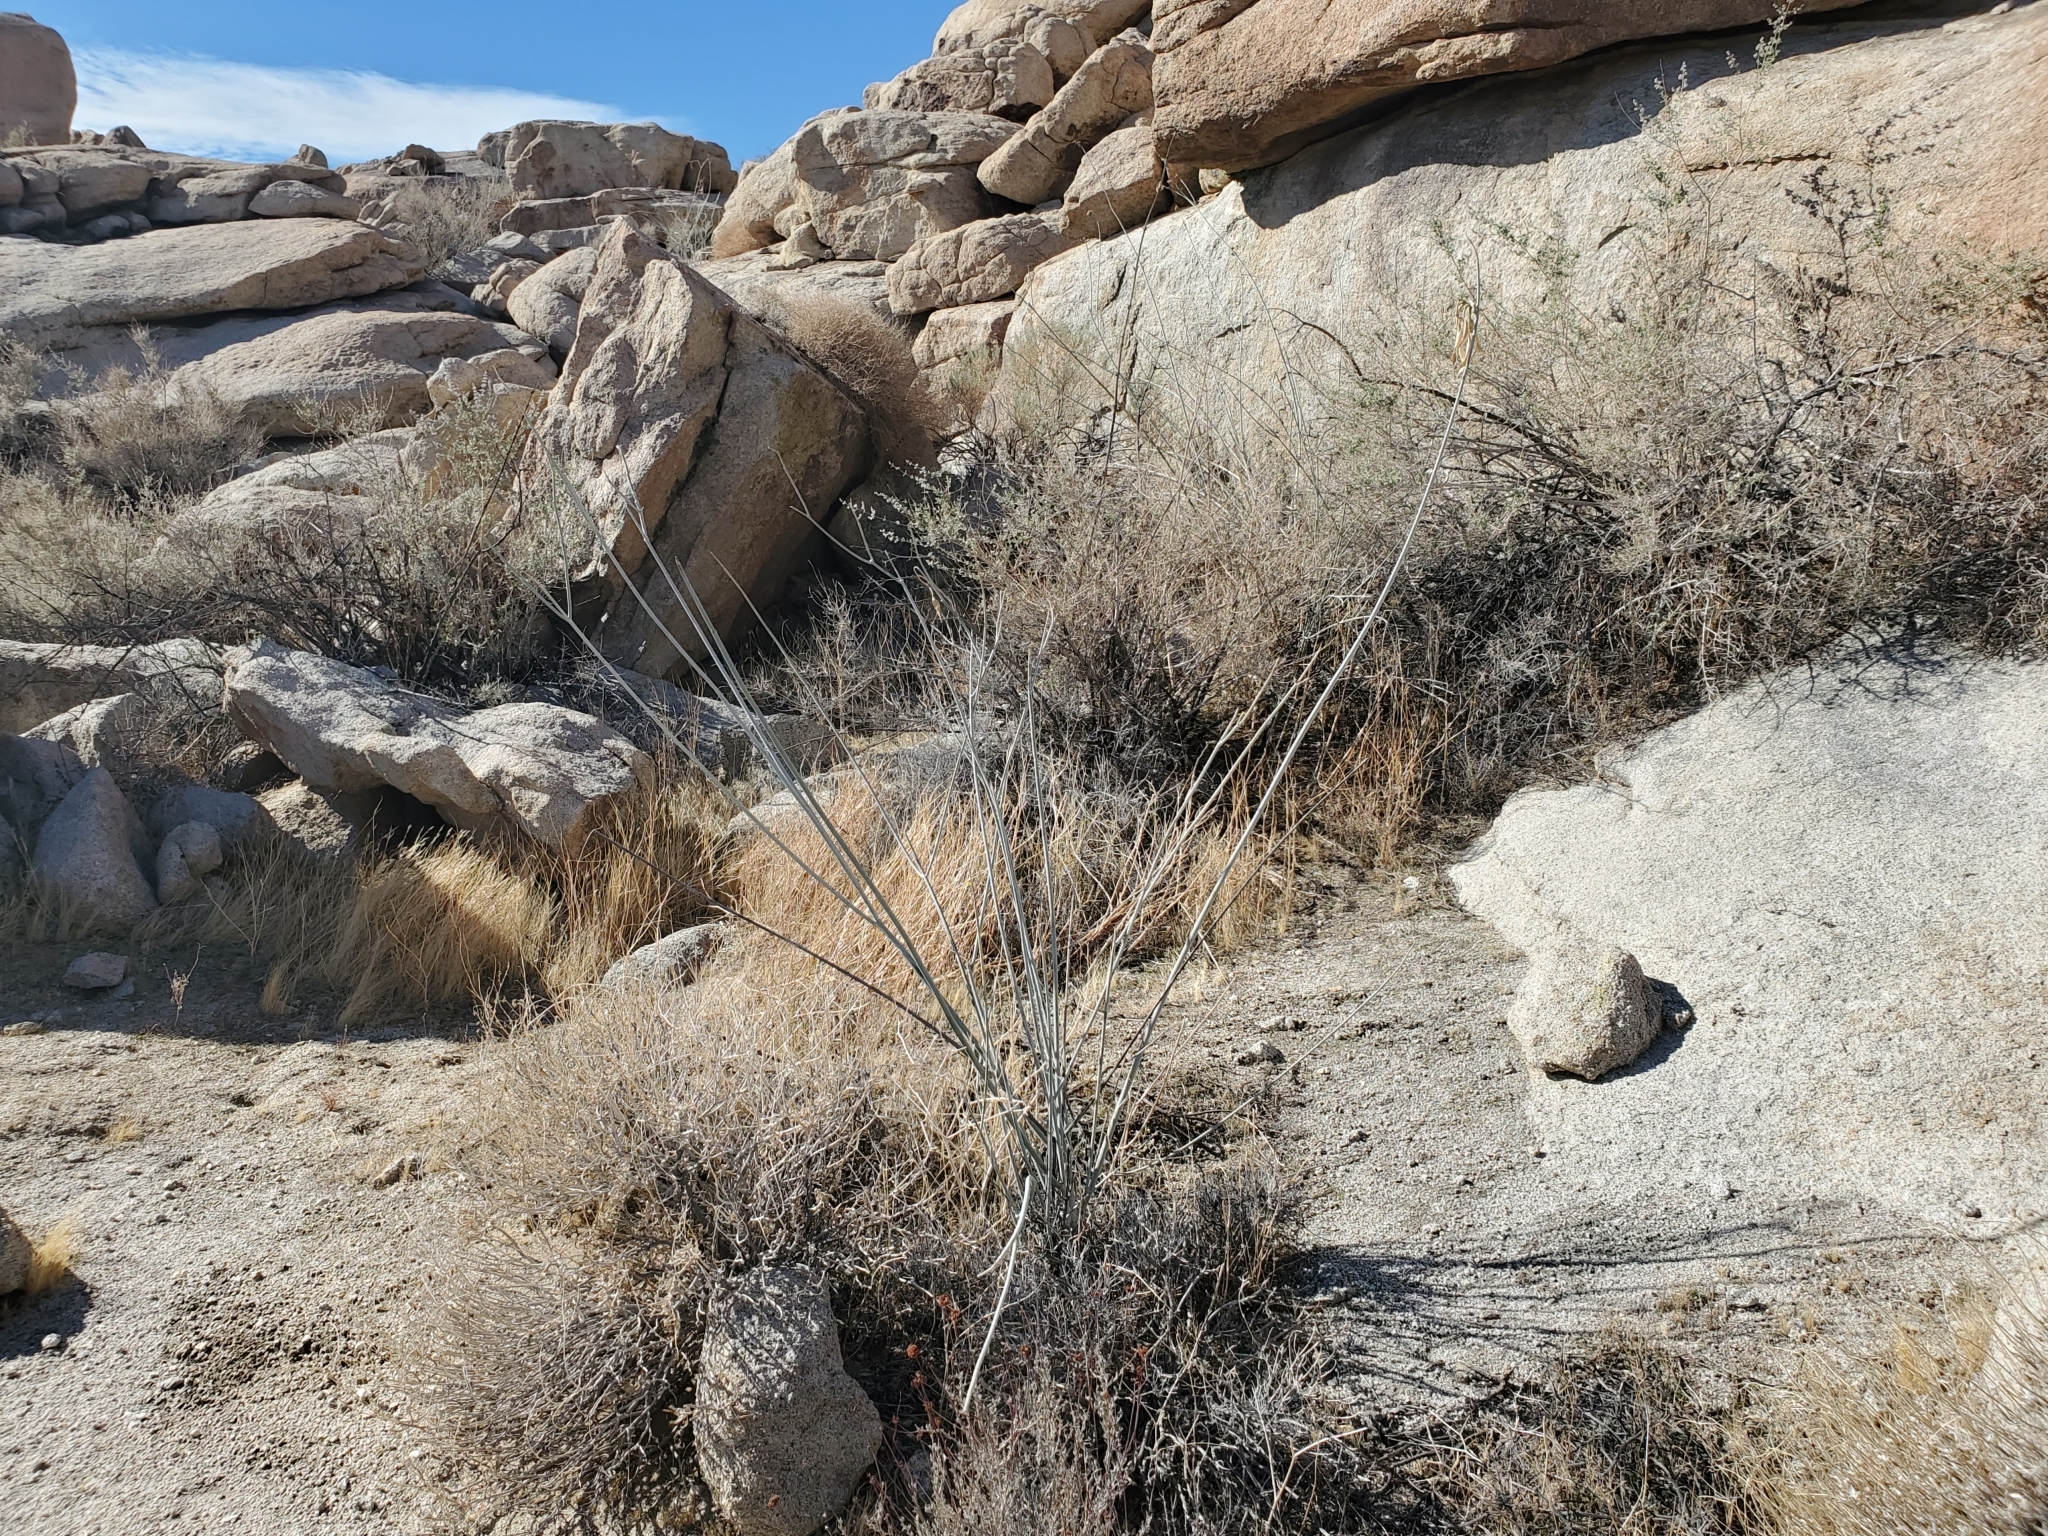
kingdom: Plantae
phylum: Tracheophyta
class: Magnoliopsida
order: Gentianales
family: Apocynaceae
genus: Asclepias
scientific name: Asclepias albicans
